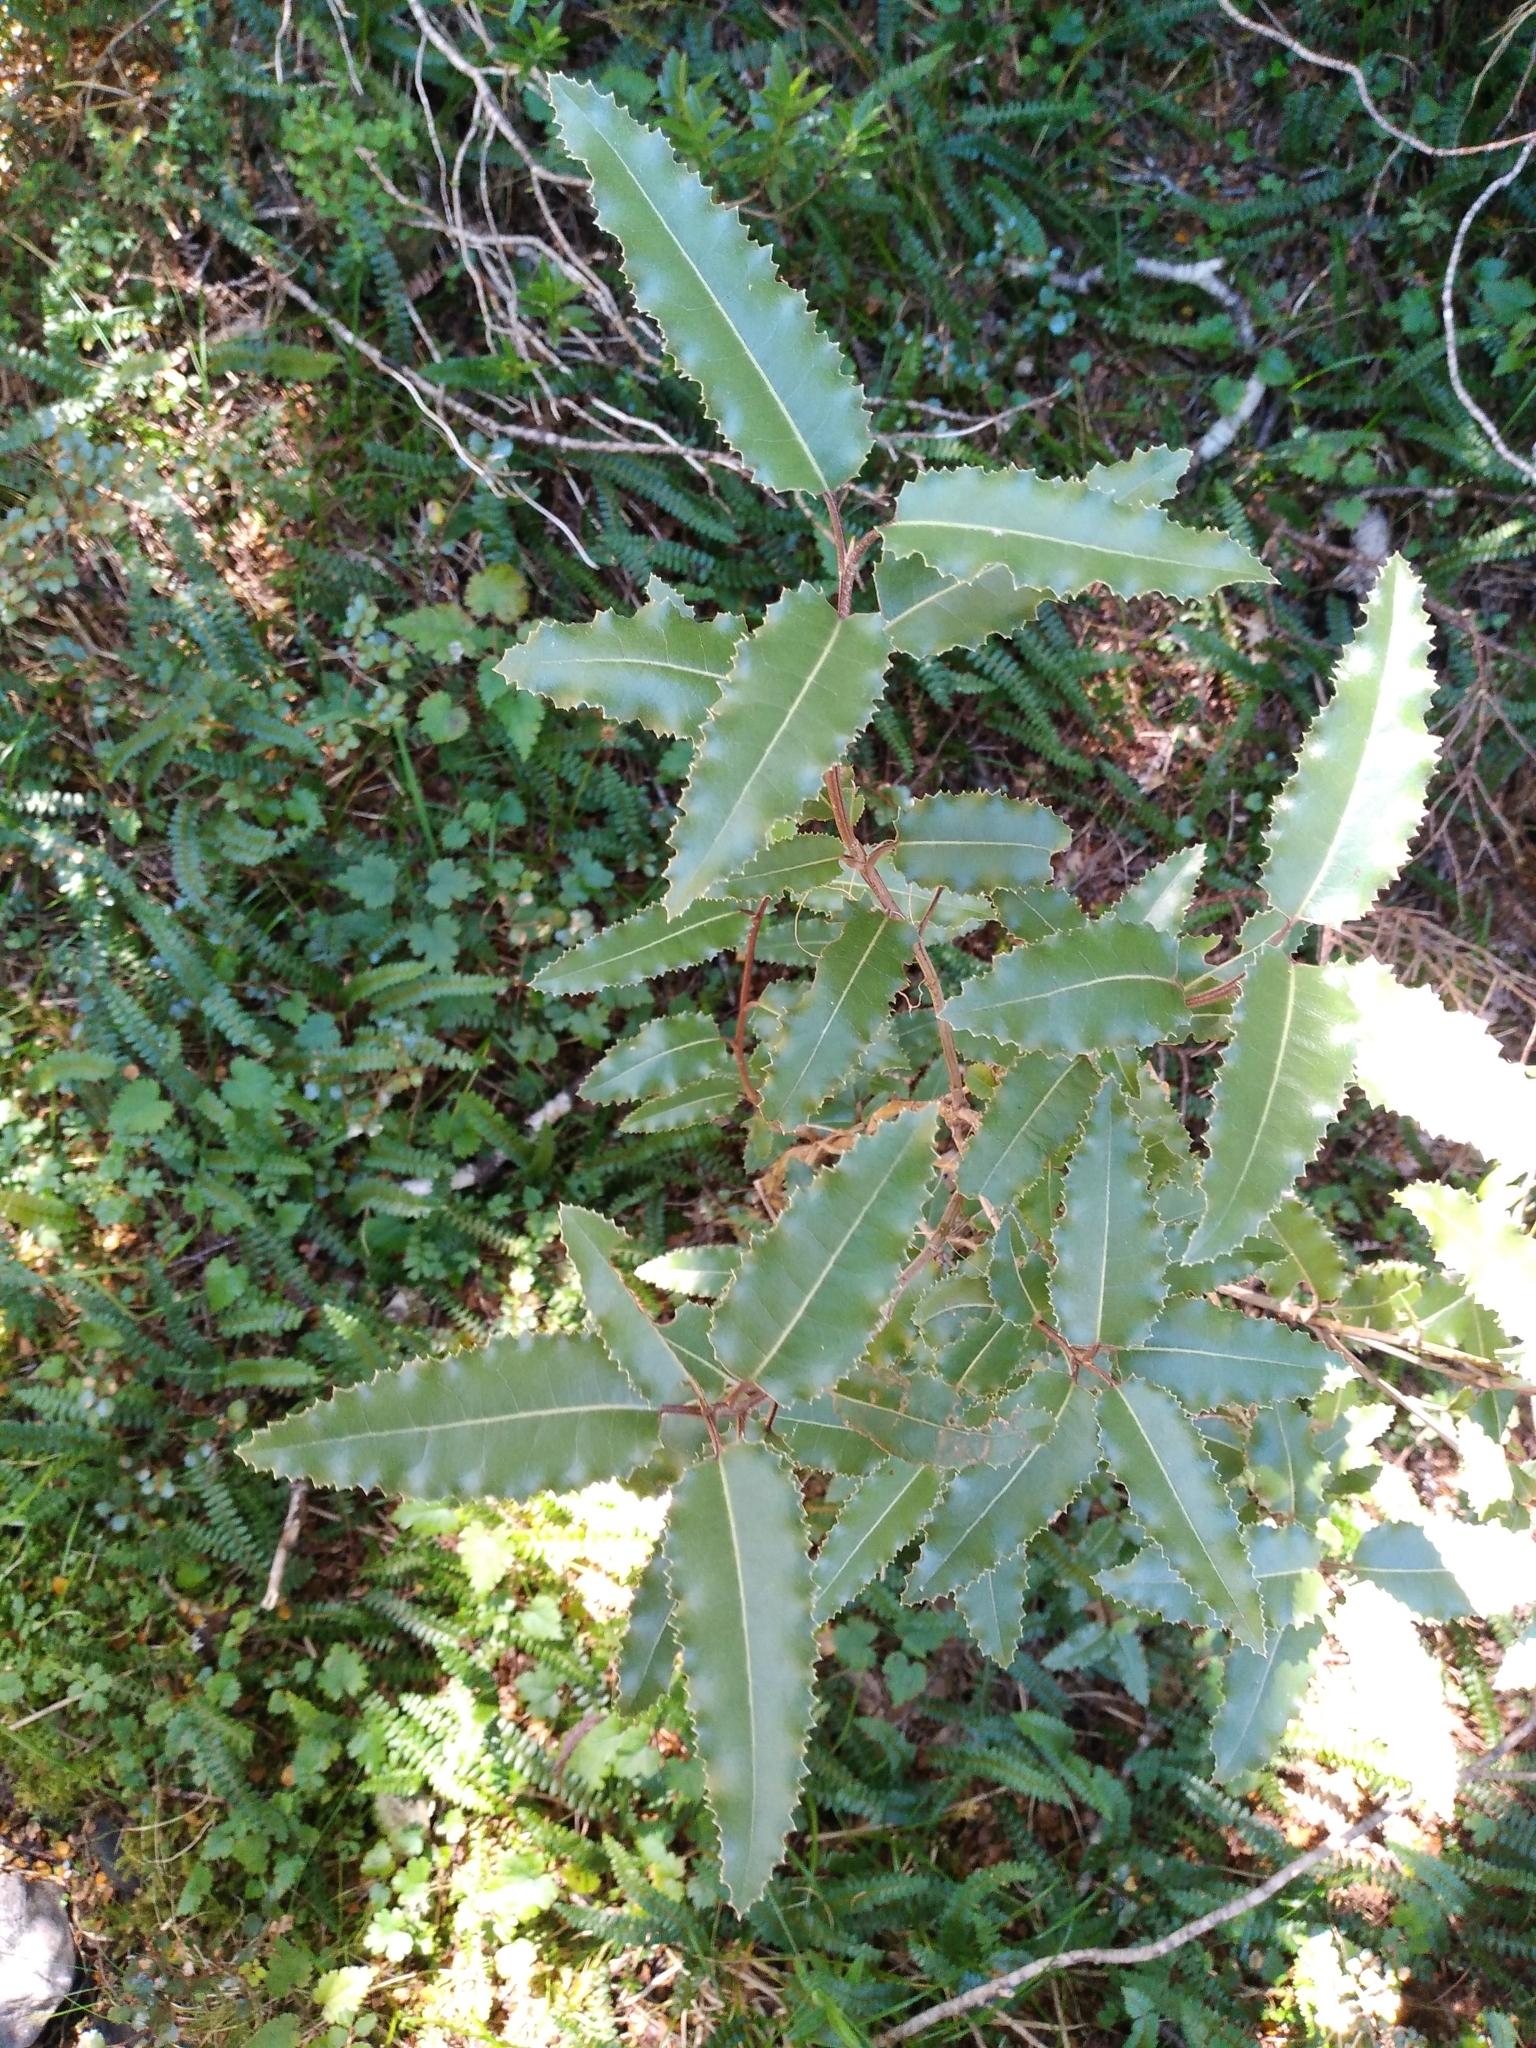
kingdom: Plantae
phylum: Tracheophyta
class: Magnoliopsida
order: Asterales
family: Asteraceae
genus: Olearia
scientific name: Olearia ilicifolia
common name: Maori-holly
